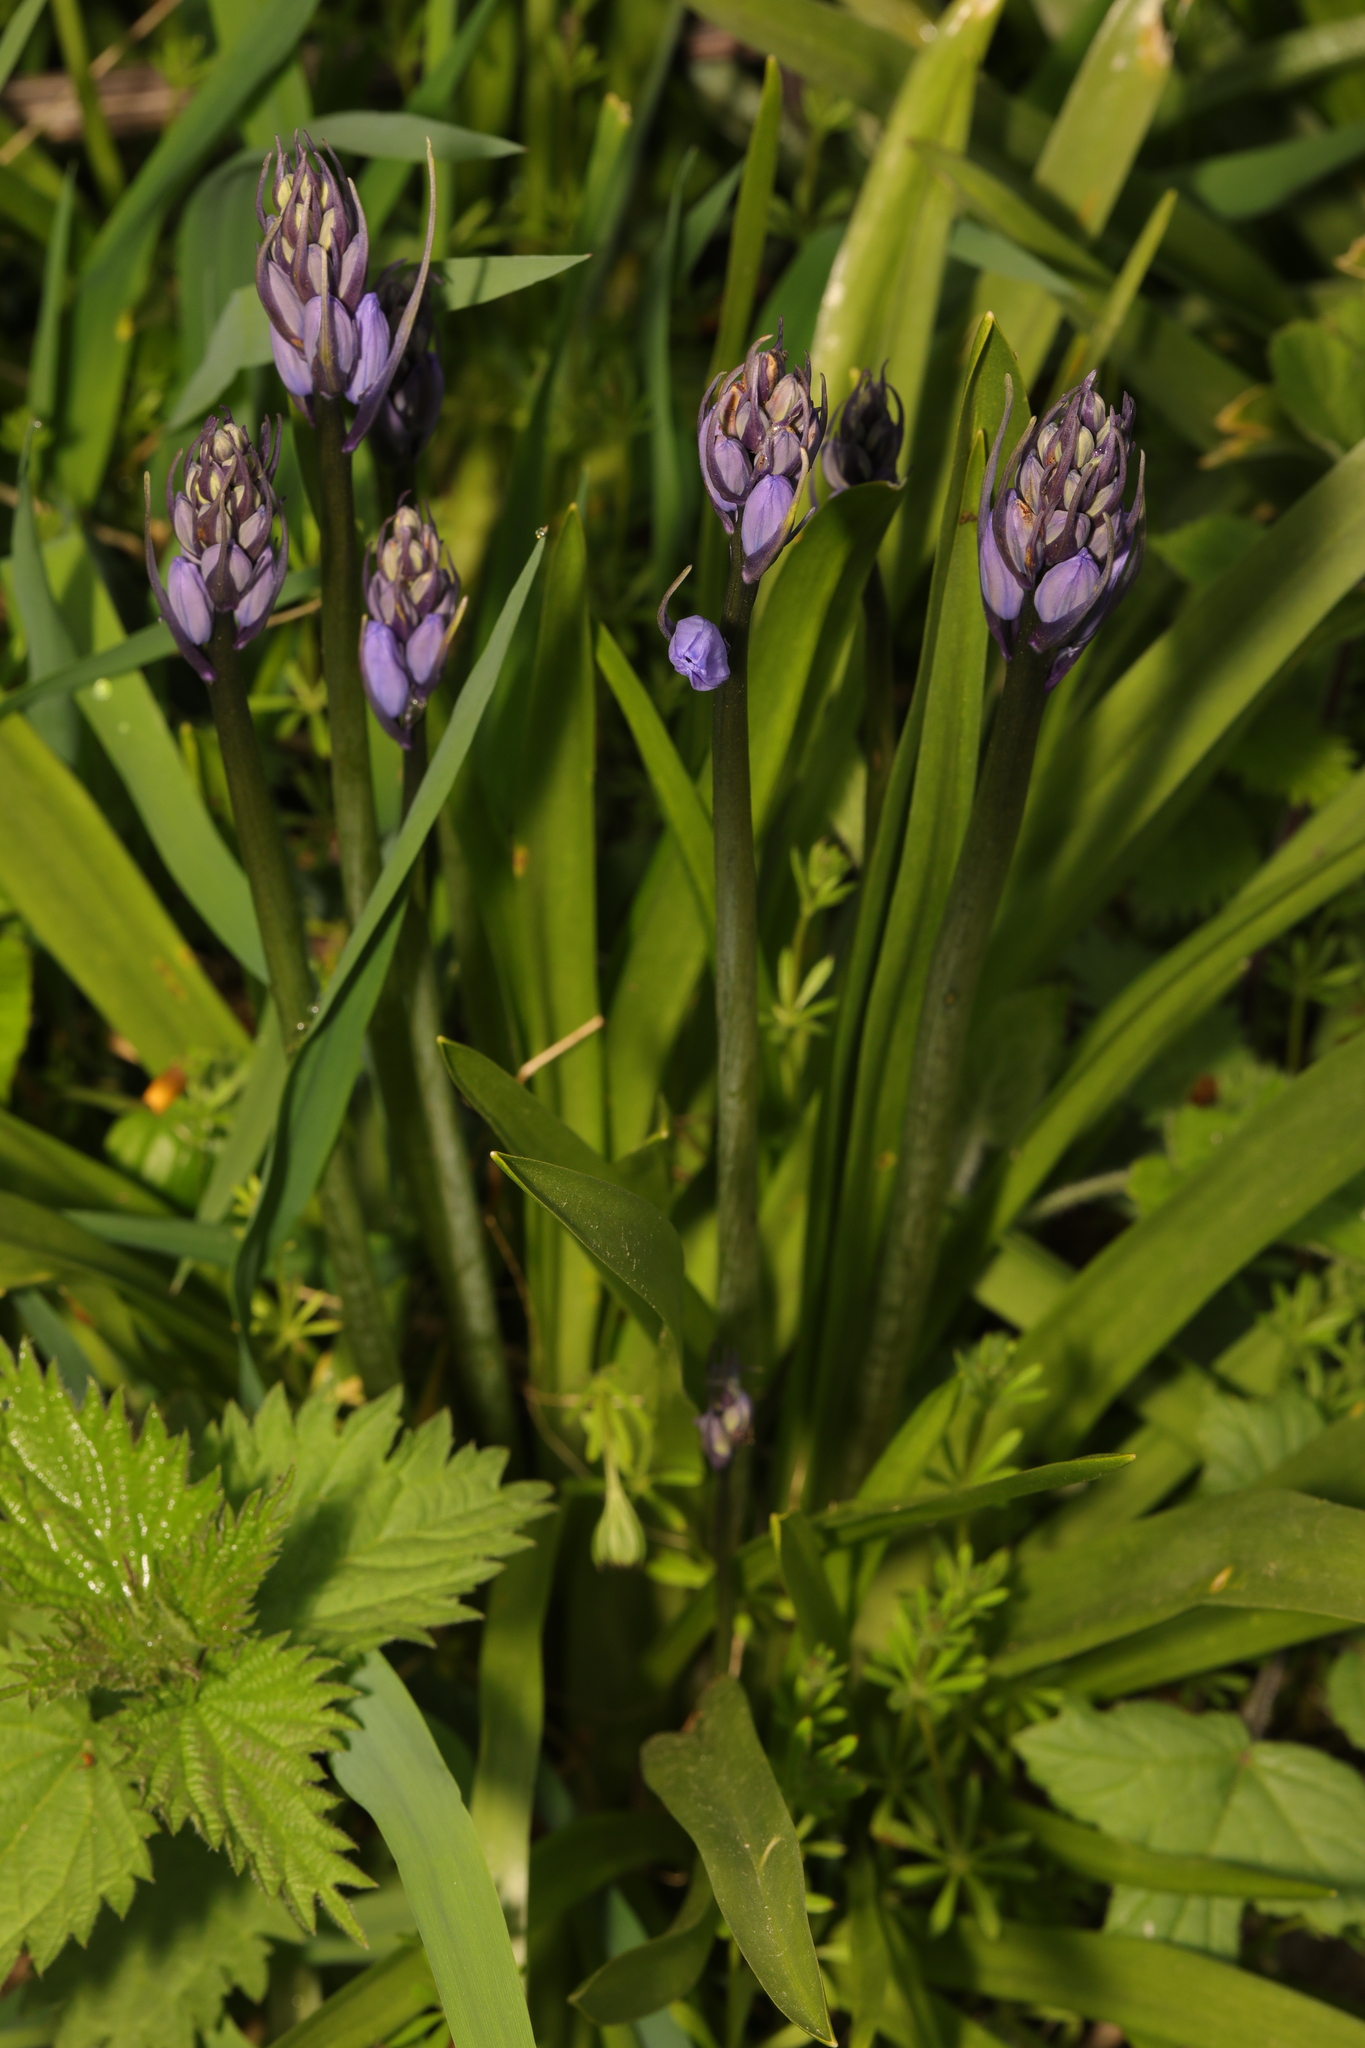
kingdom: Plantae
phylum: Tracheophyta
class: Liliopsida
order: Asparagales
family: Asparagaceae
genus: Hyacinthoides
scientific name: Hyacinthoides massartiana
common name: Hyacinthoides
